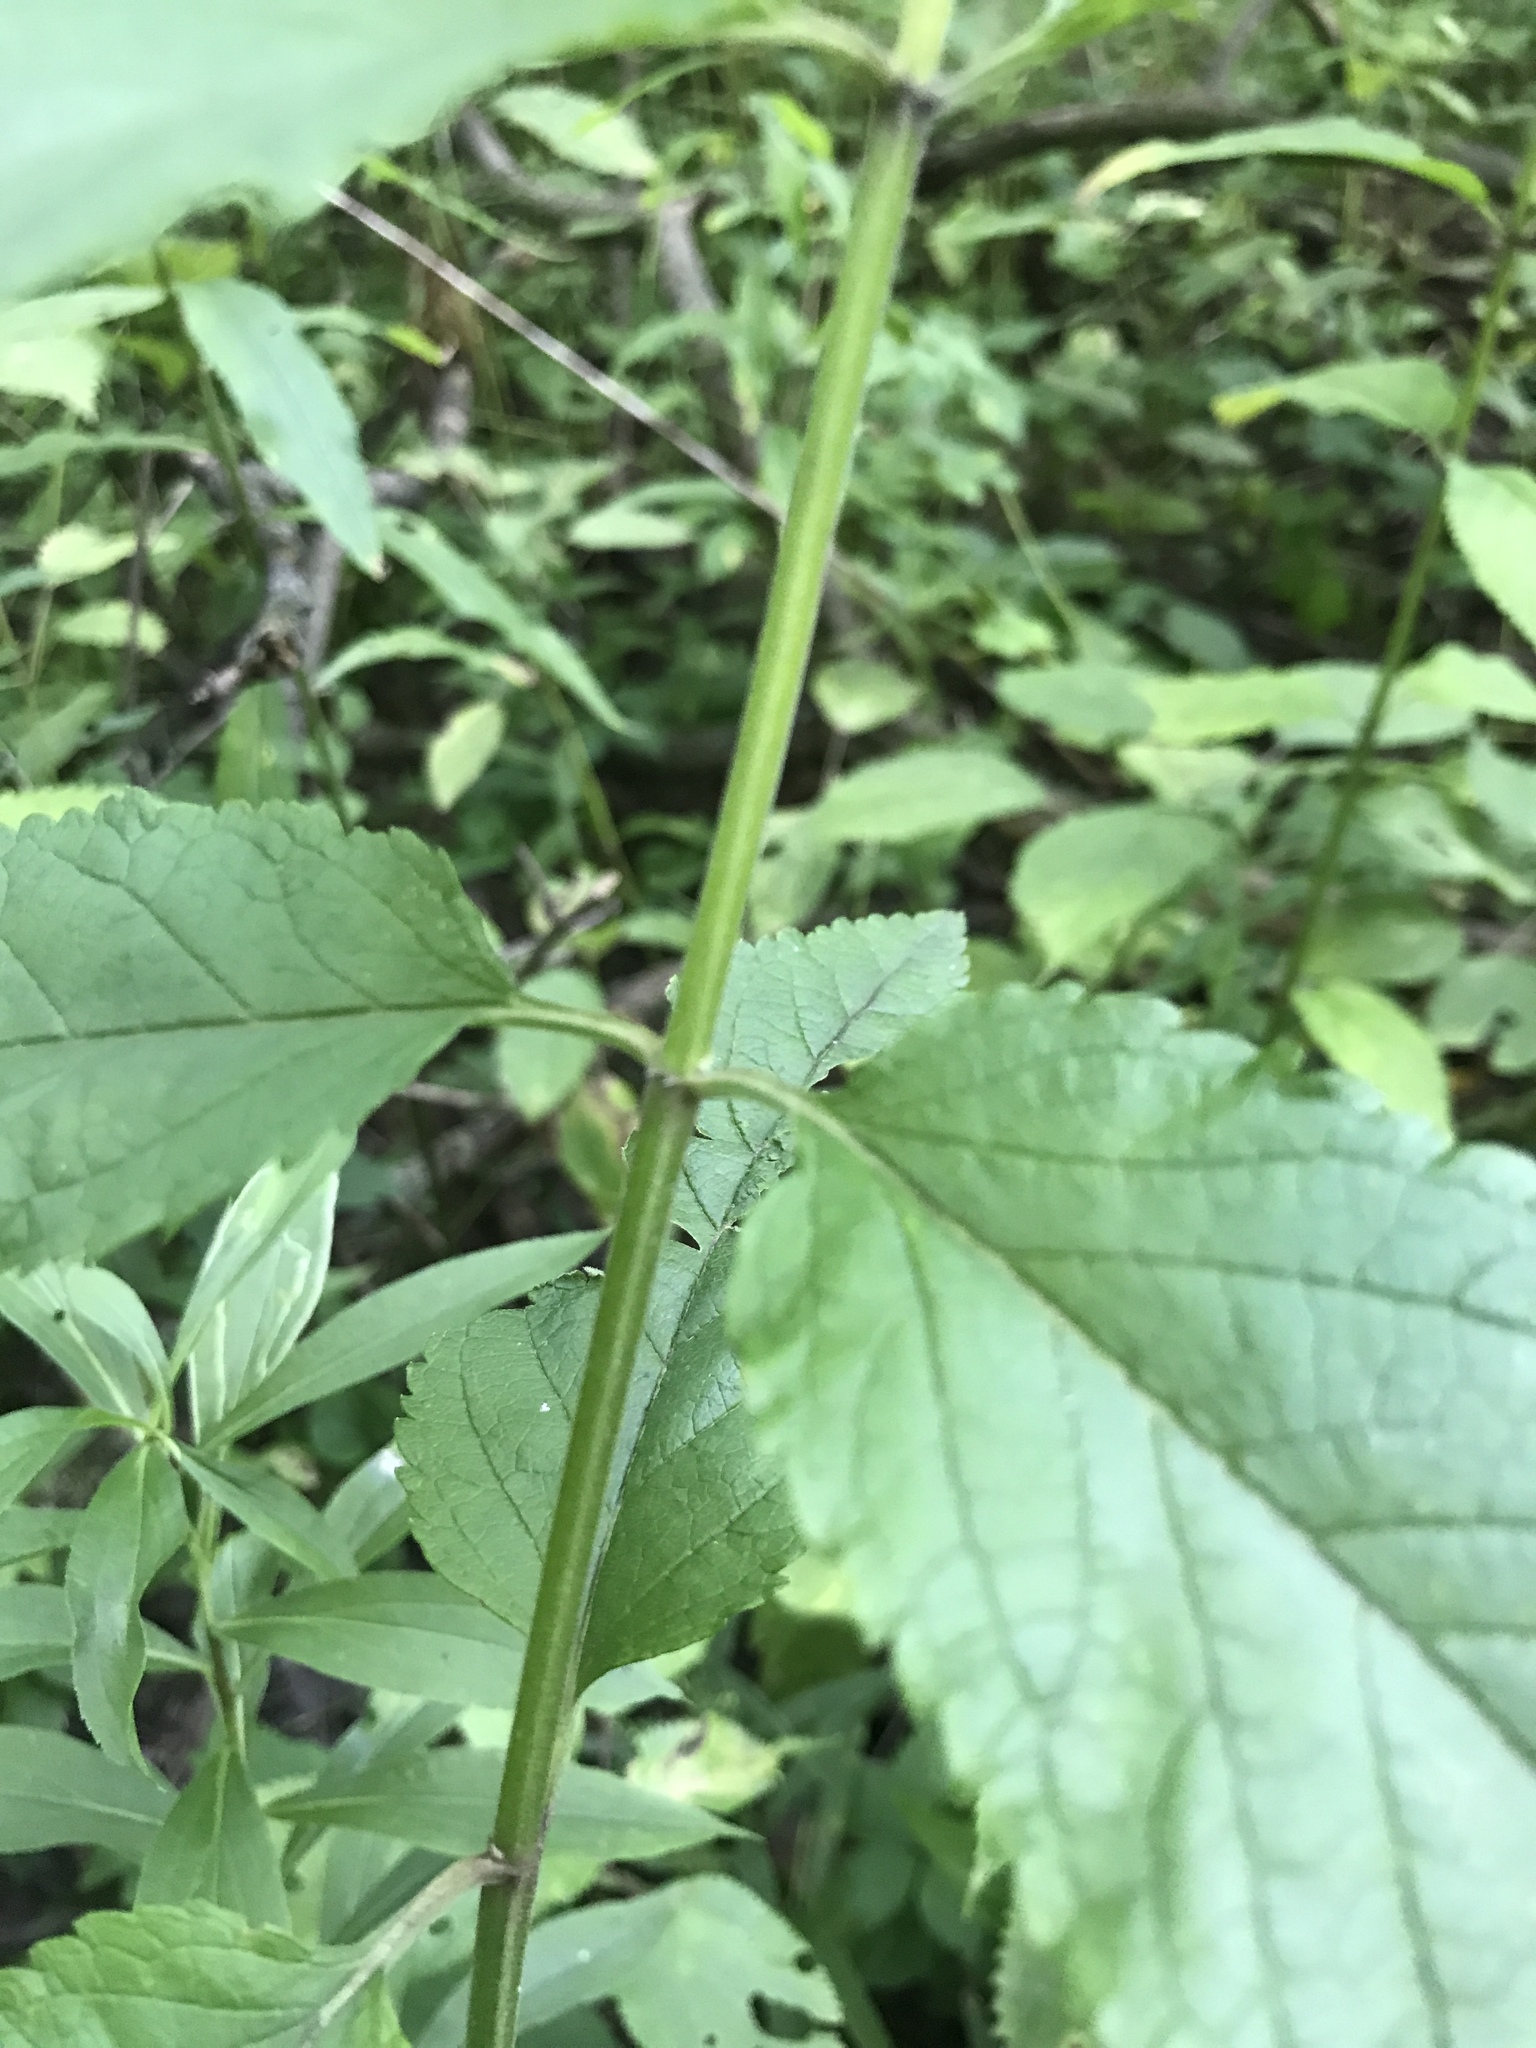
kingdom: Plantae
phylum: Tracheophyta
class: Magnoliopsida
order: Lamiales
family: Lamiaceae
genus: Teucrium
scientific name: Teucrium canadense
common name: American germander
